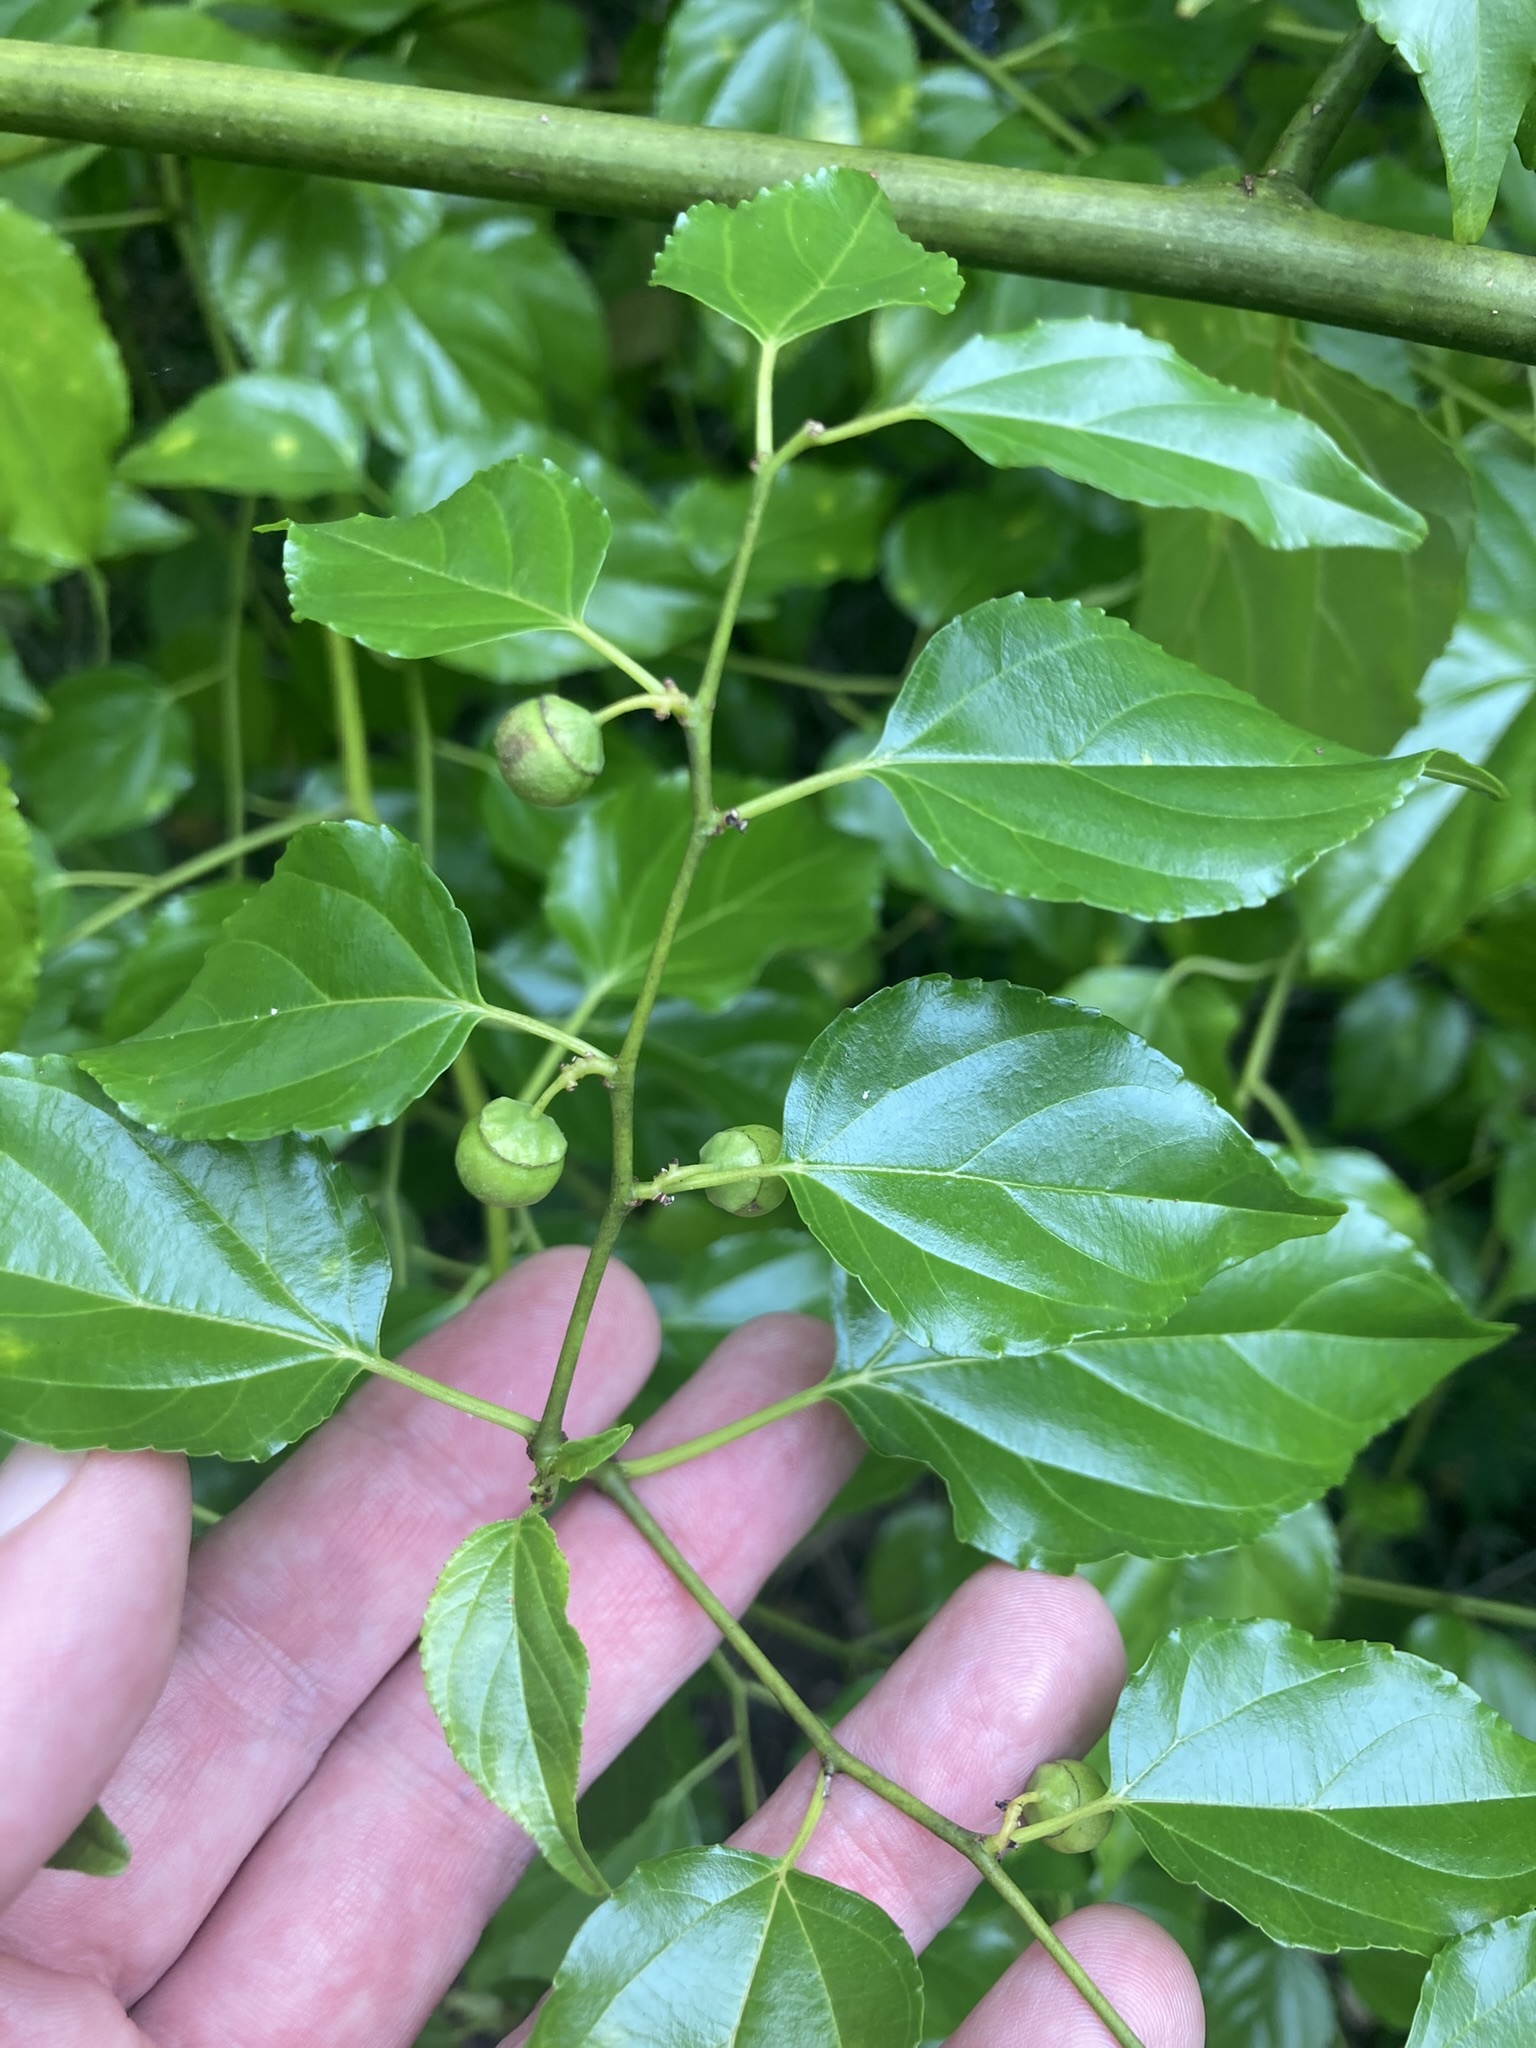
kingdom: Plantae
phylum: Tracheophyta
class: Magnoliopsida
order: Rosales
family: Rhamnaceae
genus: Colubrina
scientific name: Colubrina asiatica
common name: Asian nakedwood
